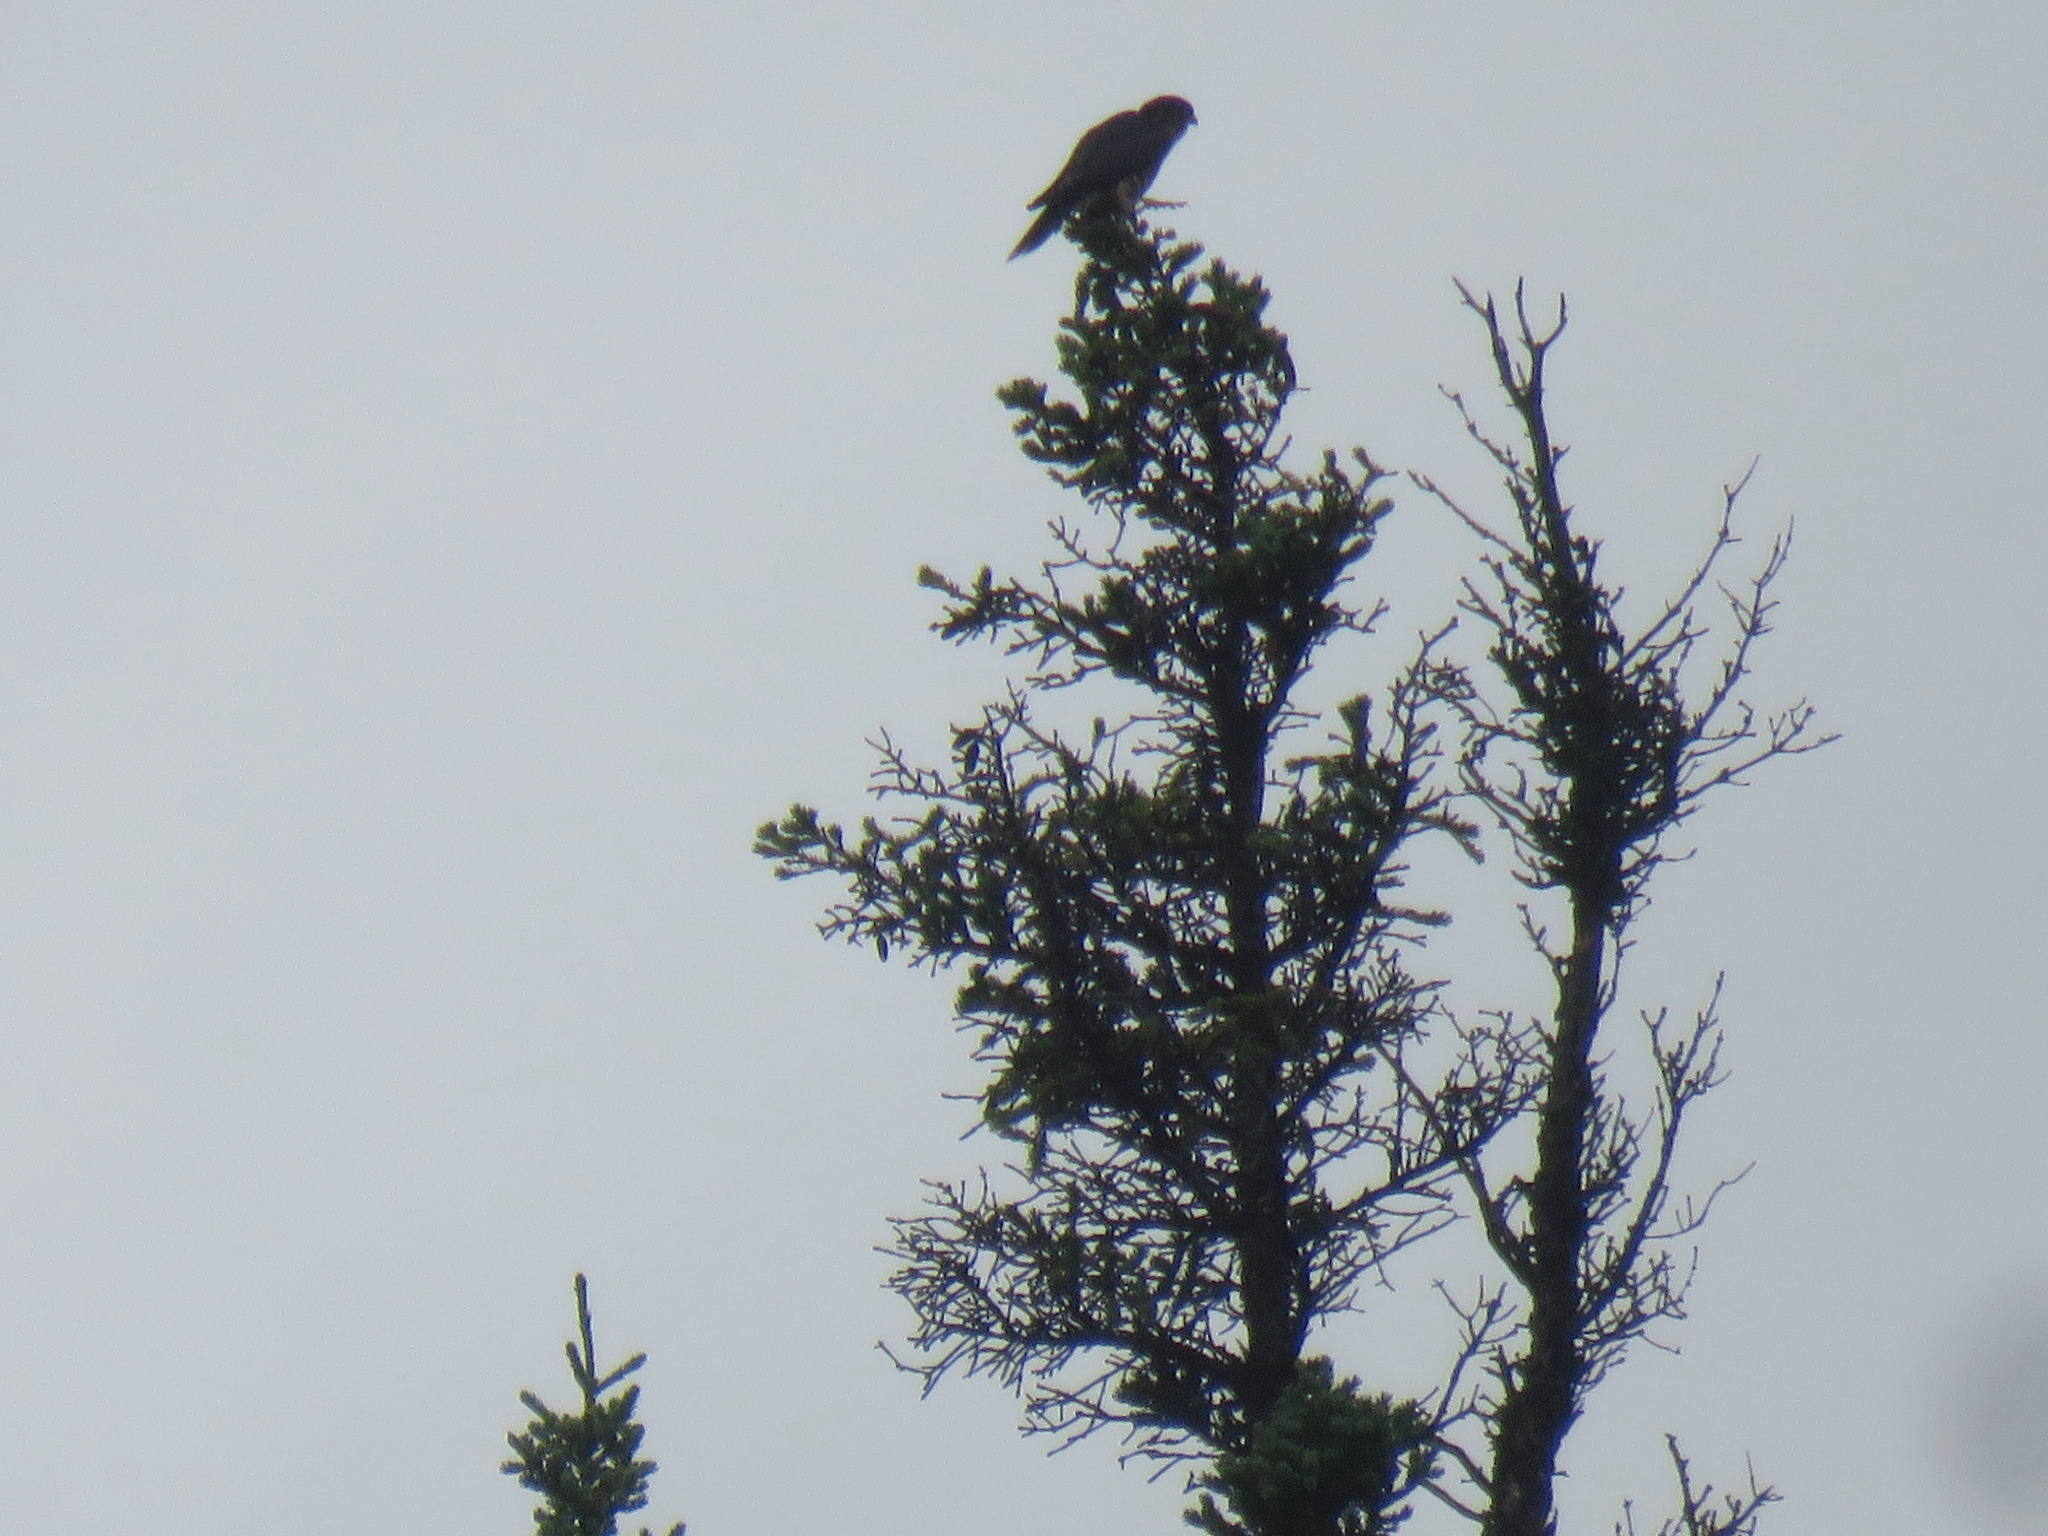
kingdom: Animalia
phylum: Chordata
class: Aves
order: Falconiformes
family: Falconidae
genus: Falco
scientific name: Falco columbarius
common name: Merlin
